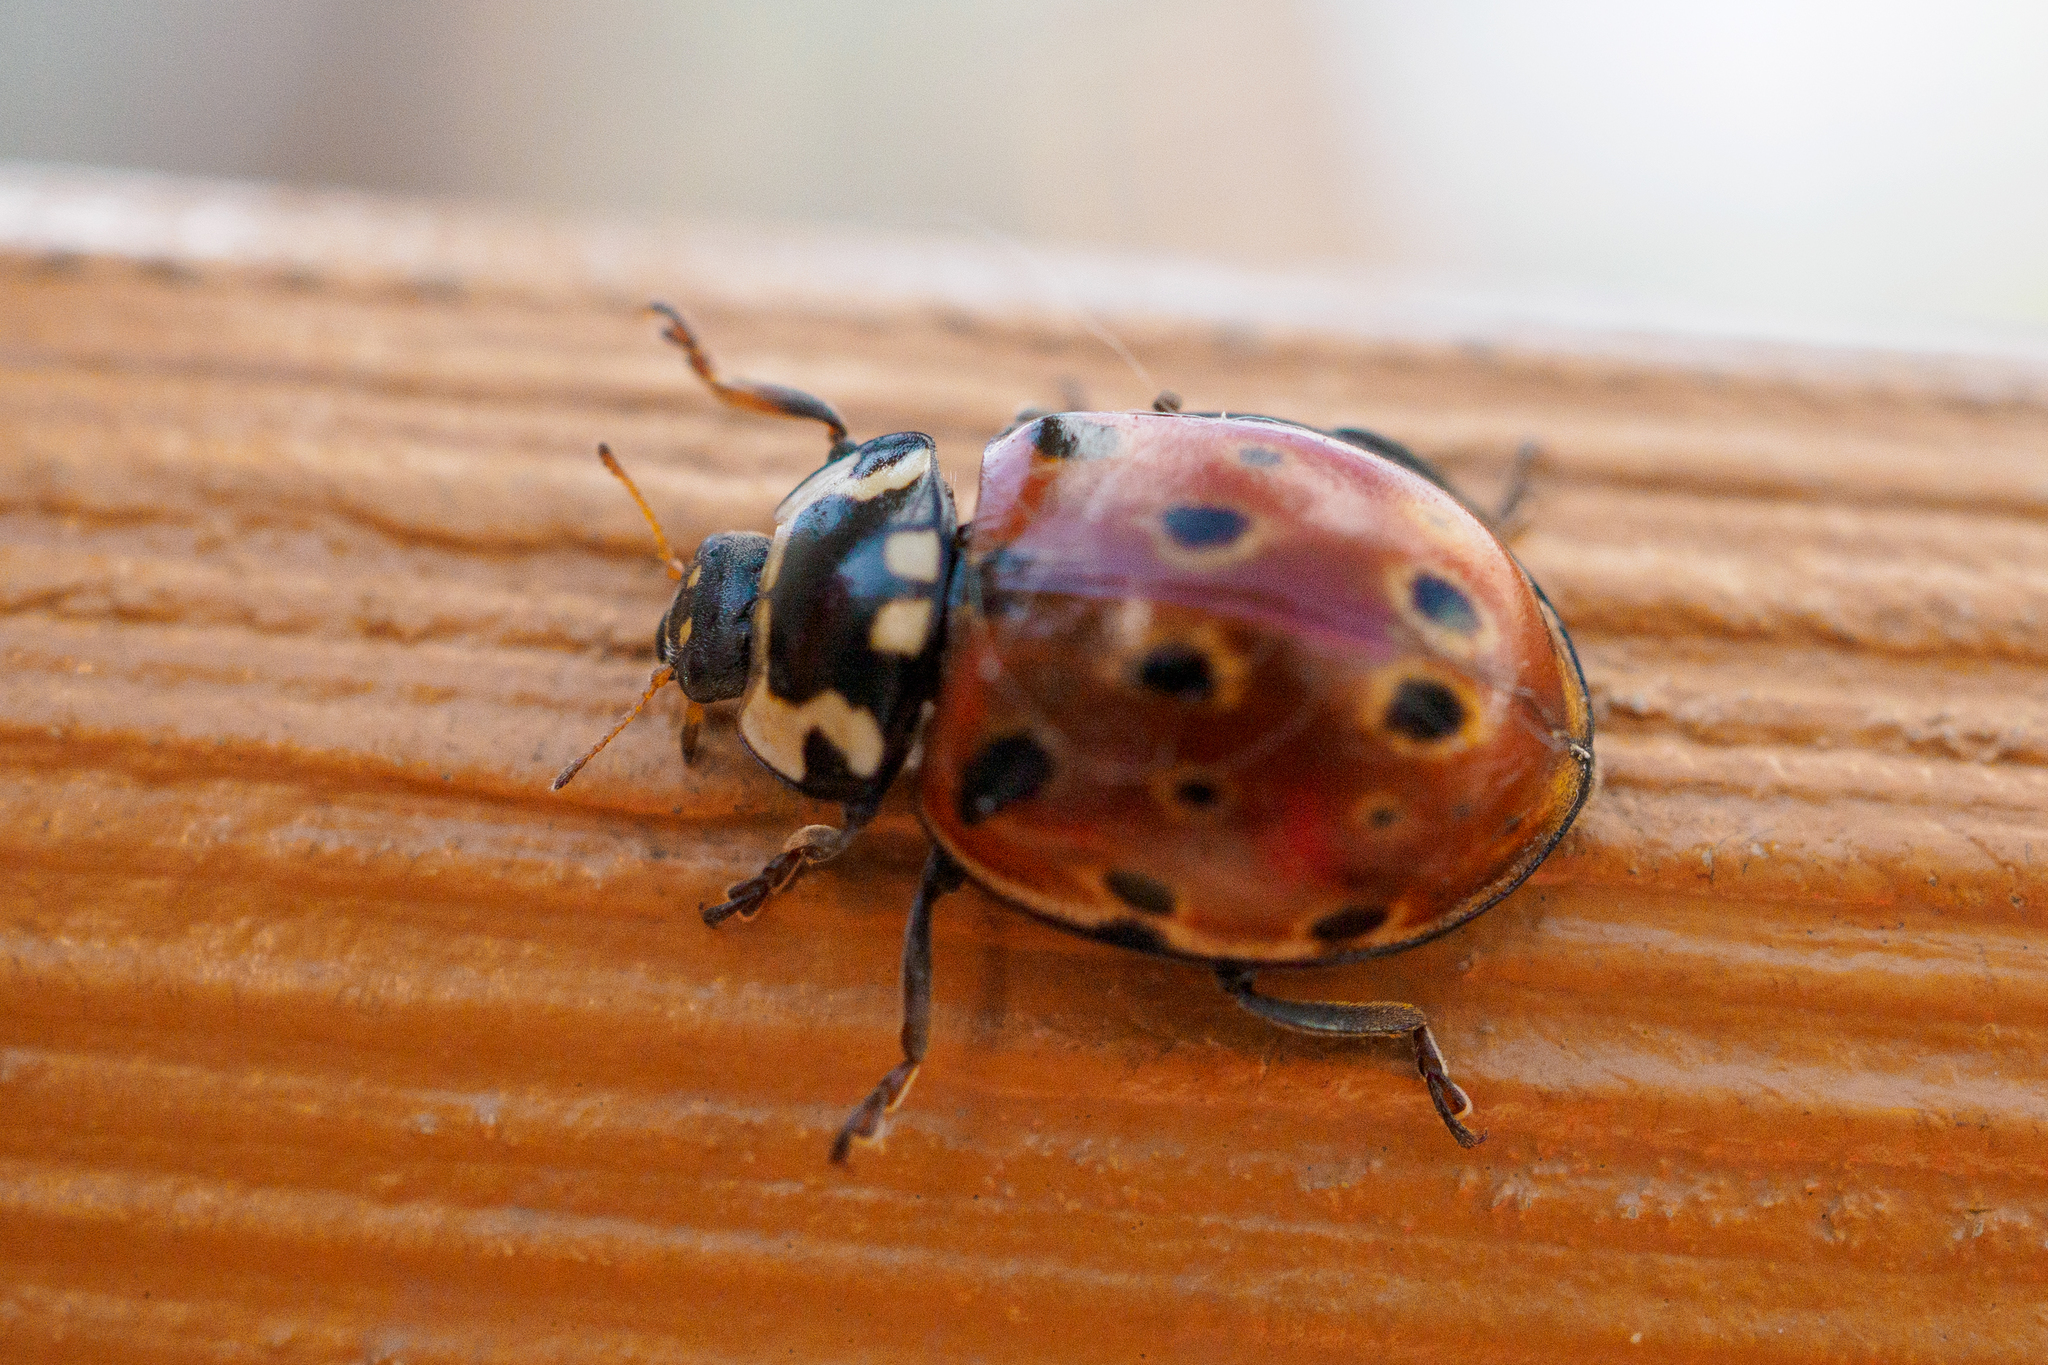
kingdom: Animalia
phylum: Arthropoda
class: Insecta
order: Coleoptera
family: Coccinellidae
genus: Anatis
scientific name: Anatis ocellata
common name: Eyed ladybird
